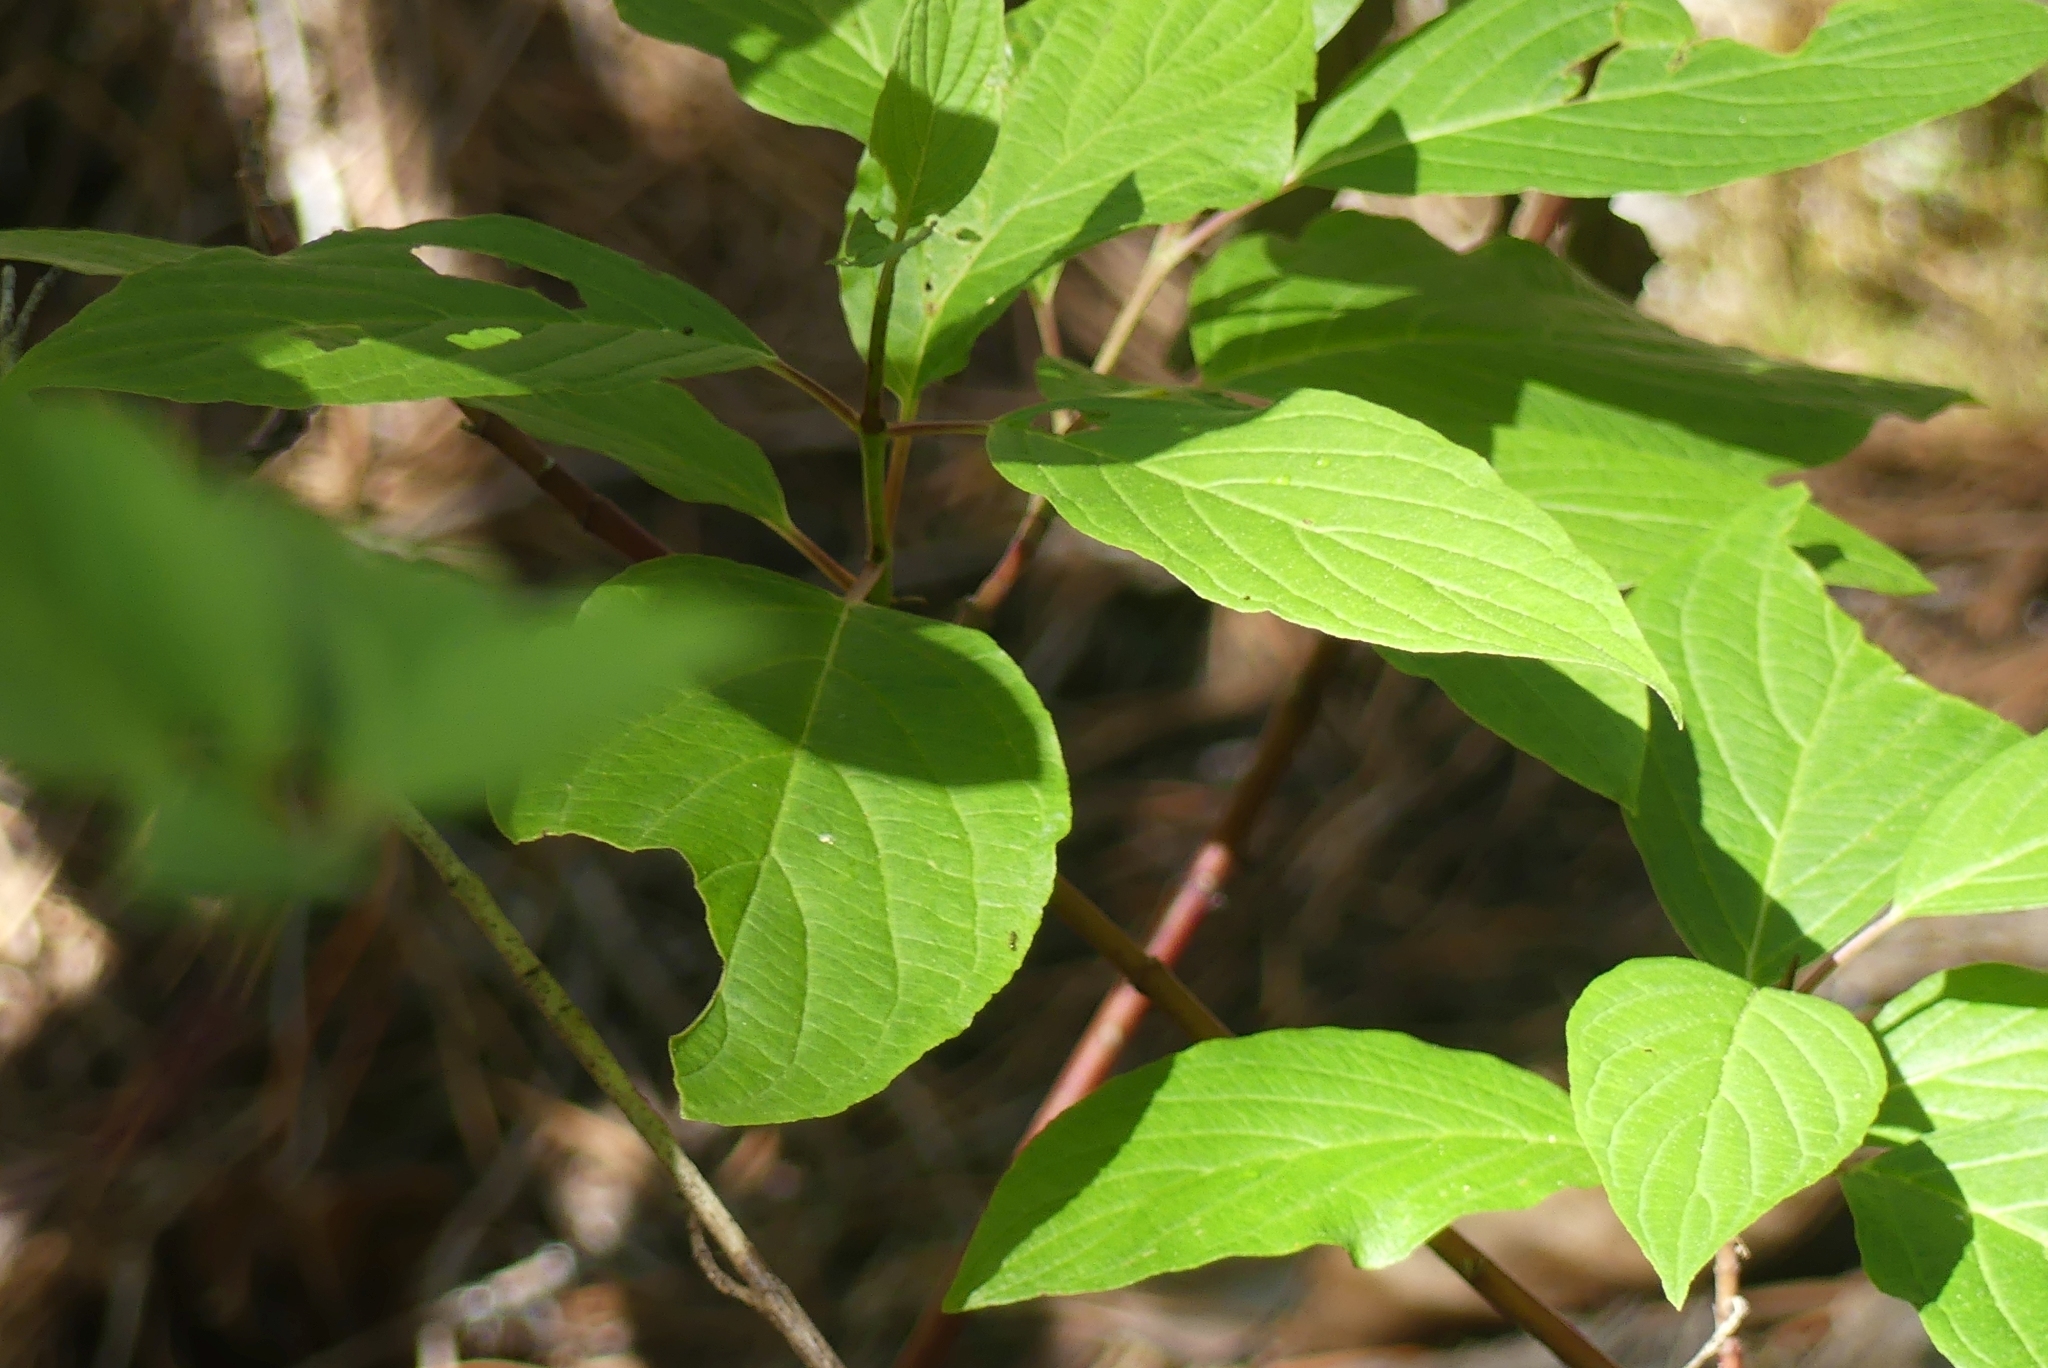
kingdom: Plantae
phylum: Tracheophyta
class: Magnoliopsida
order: Cornales
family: Cornaceae
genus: Cornus
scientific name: Cornus sericea
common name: Red-osier dogwood
